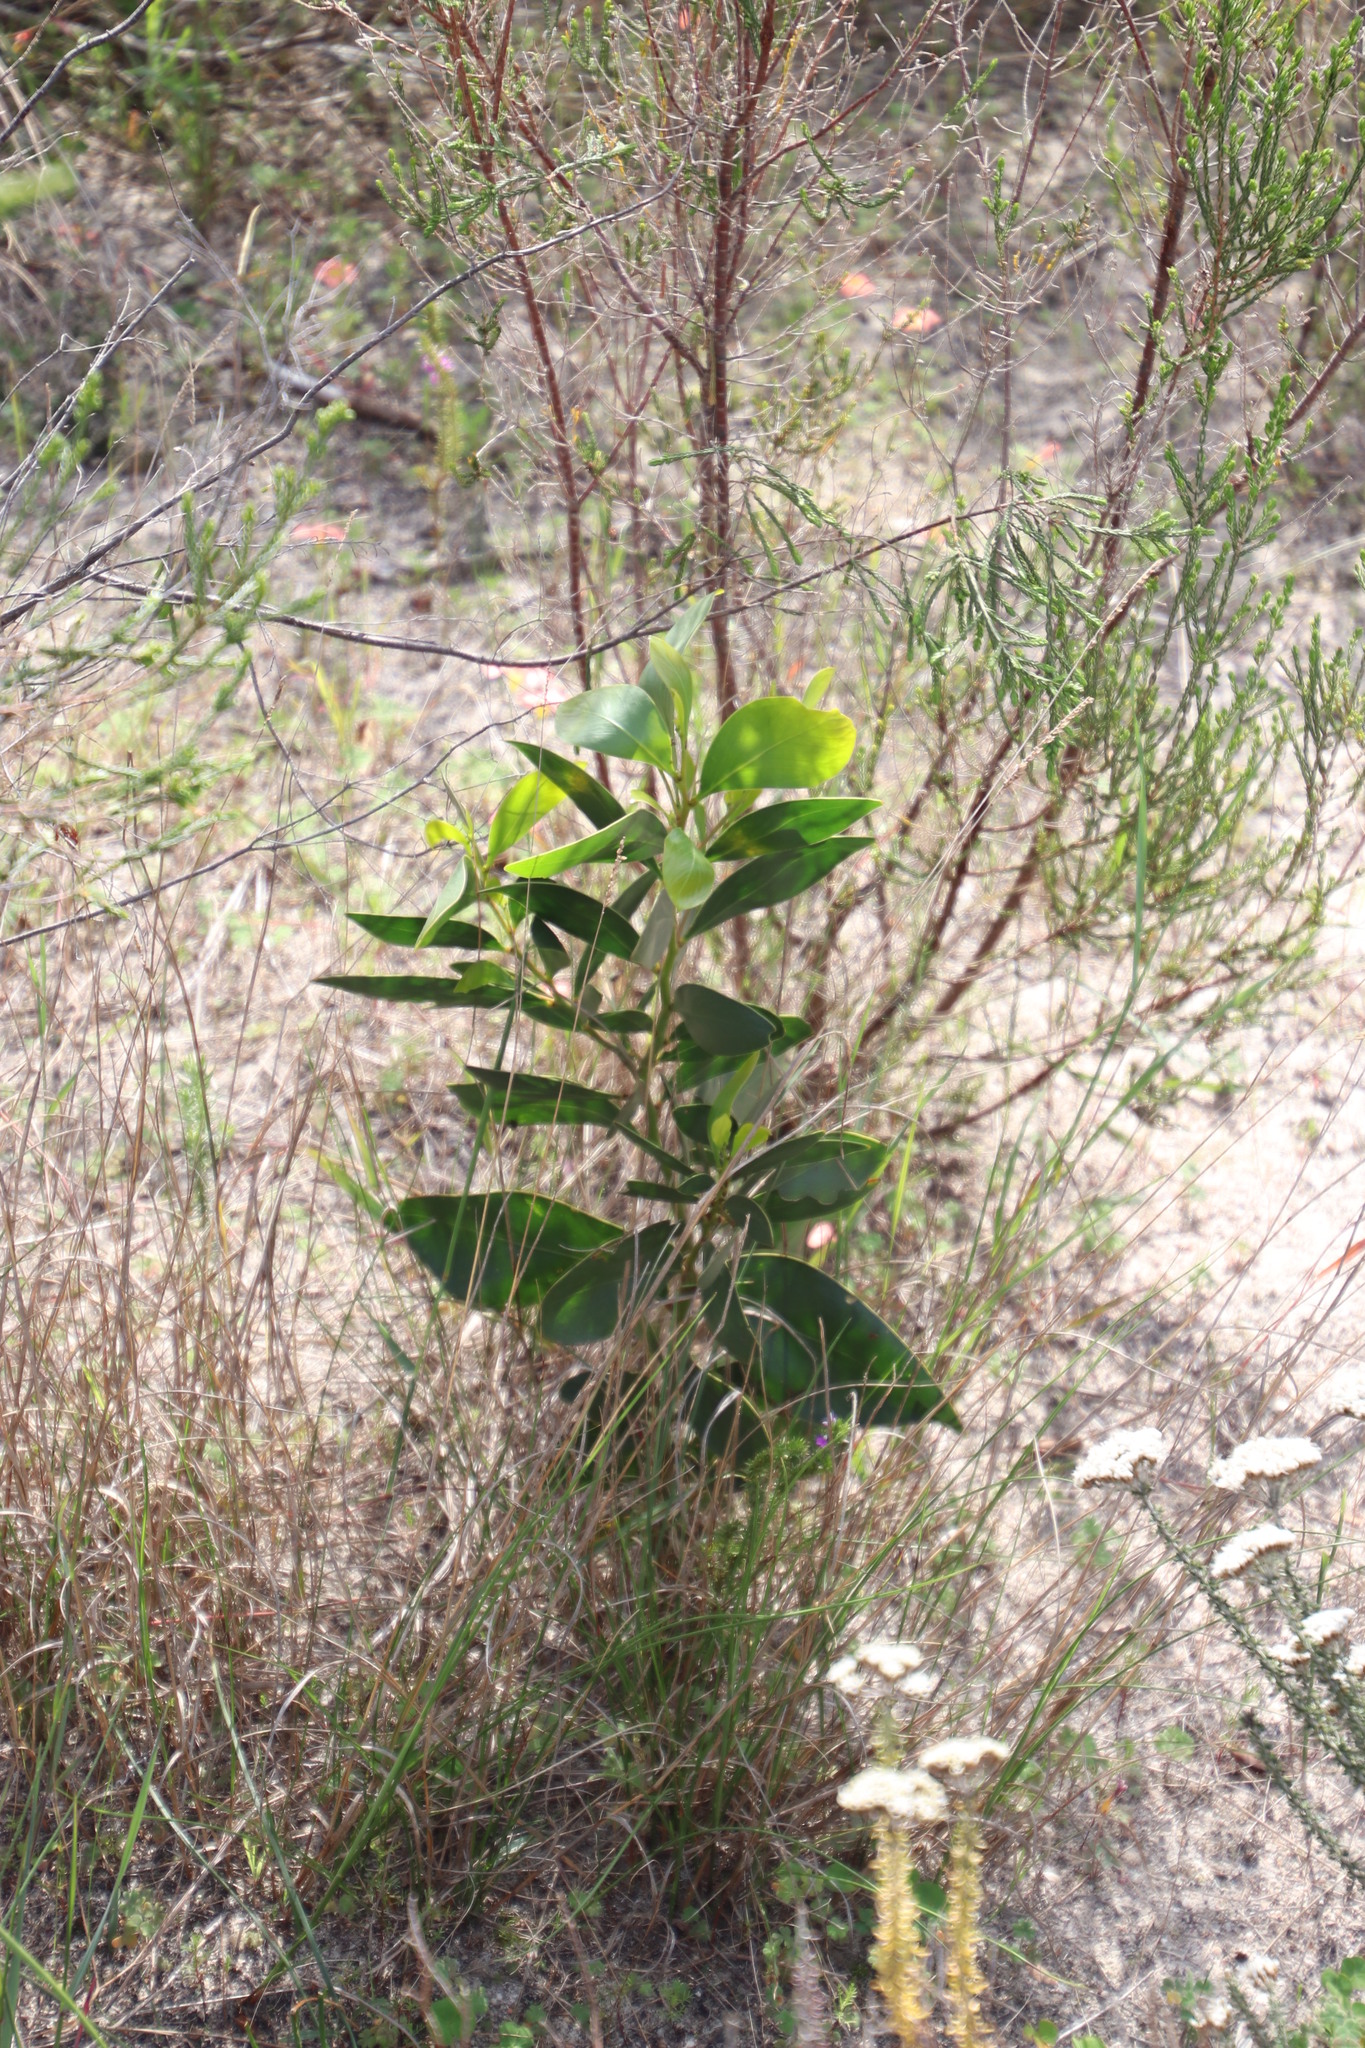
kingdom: Plantae
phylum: Tracheophyta
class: Magnoliopsida
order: Fabales
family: Fabaceae
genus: Acacia
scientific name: Acacia pycnantha
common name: Golden wattle
